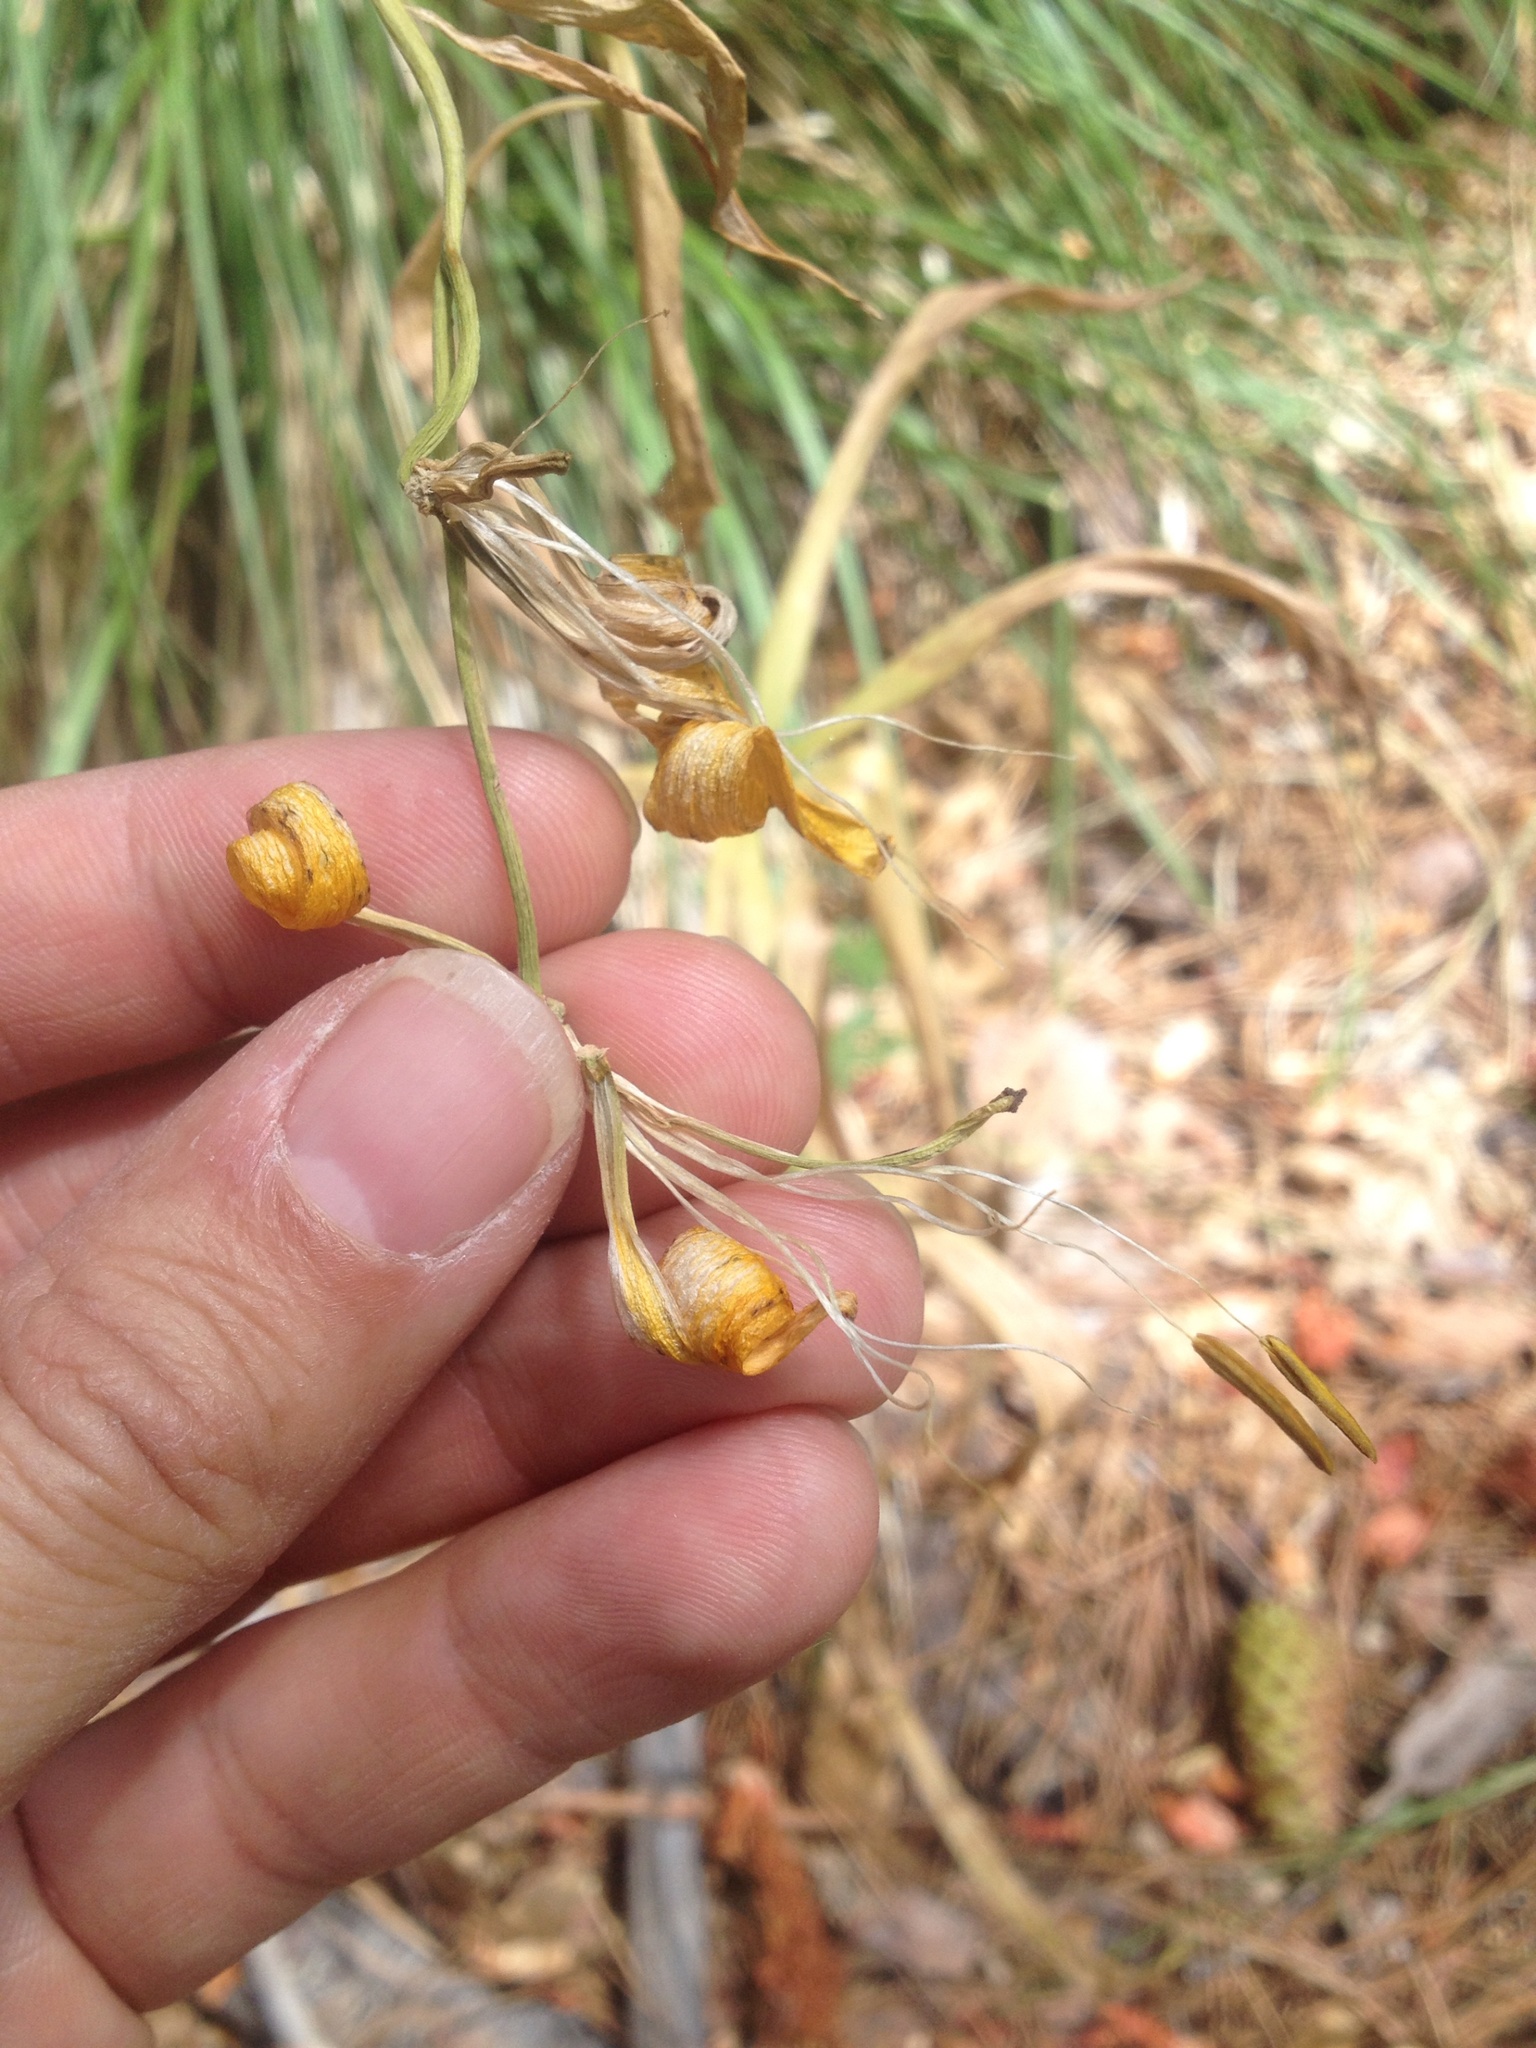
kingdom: Plantae
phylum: Tracheophyta
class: Liliopsida
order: Liliales
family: Liliaceae
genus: Lilium
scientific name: Lilium parryi
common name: Lemon lily
